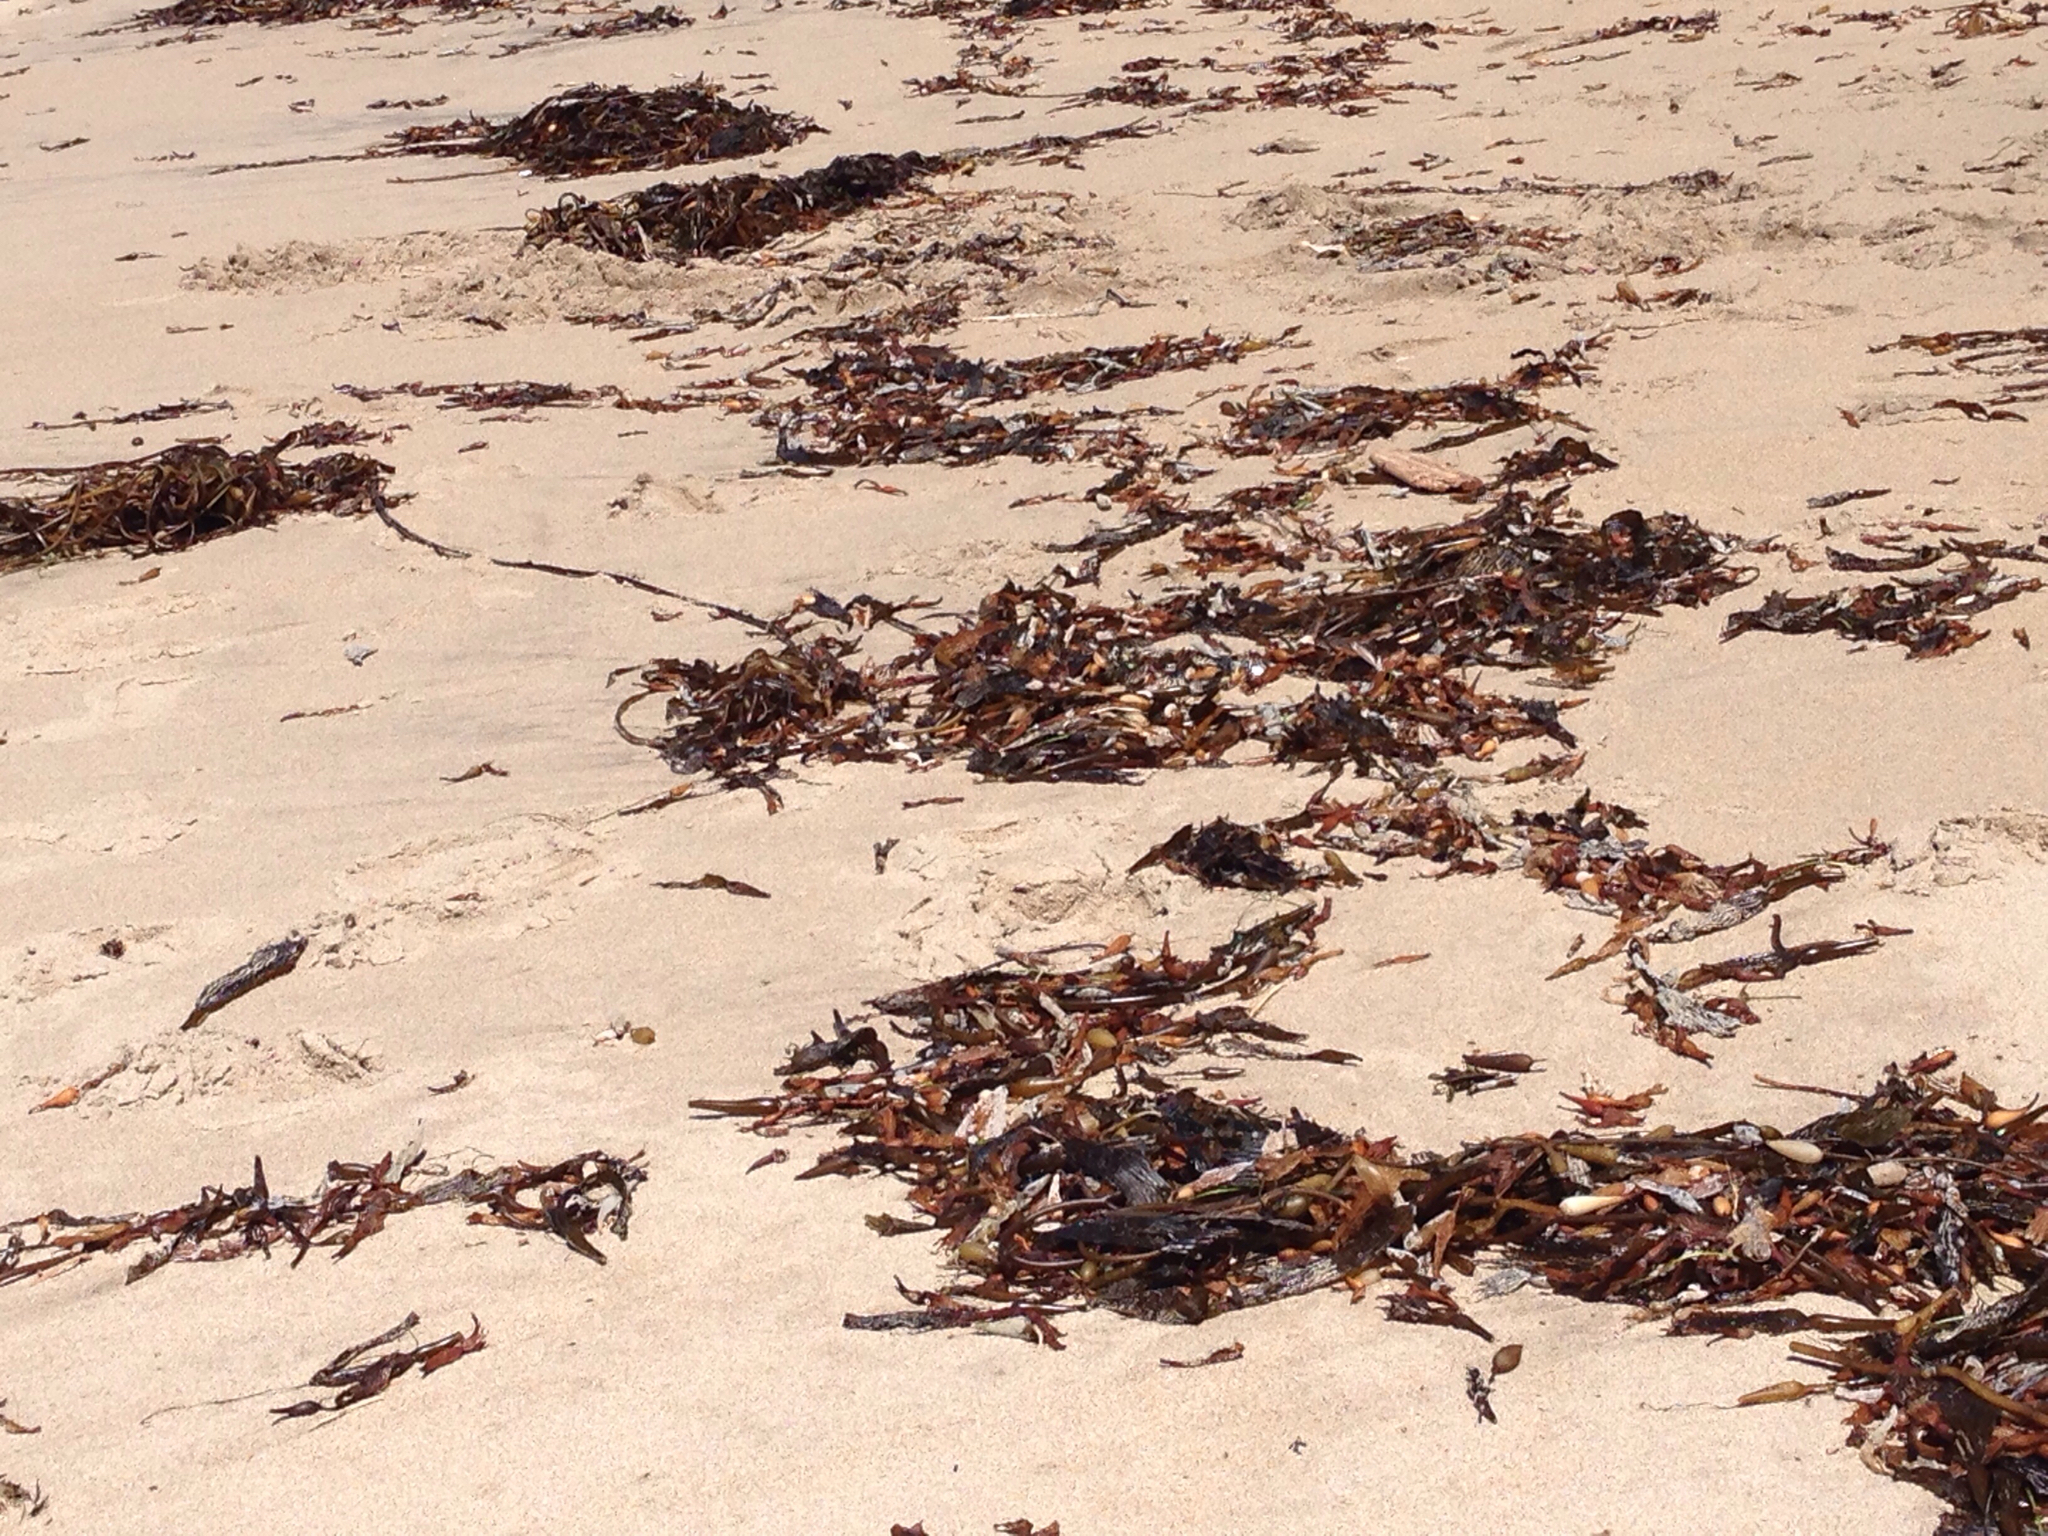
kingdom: Chromista
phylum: Ochrophyta
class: Phaeophyceae
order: Laminariales
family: Laminariaceae
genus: Macrocystis
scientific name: Macrocystis pyrifera
